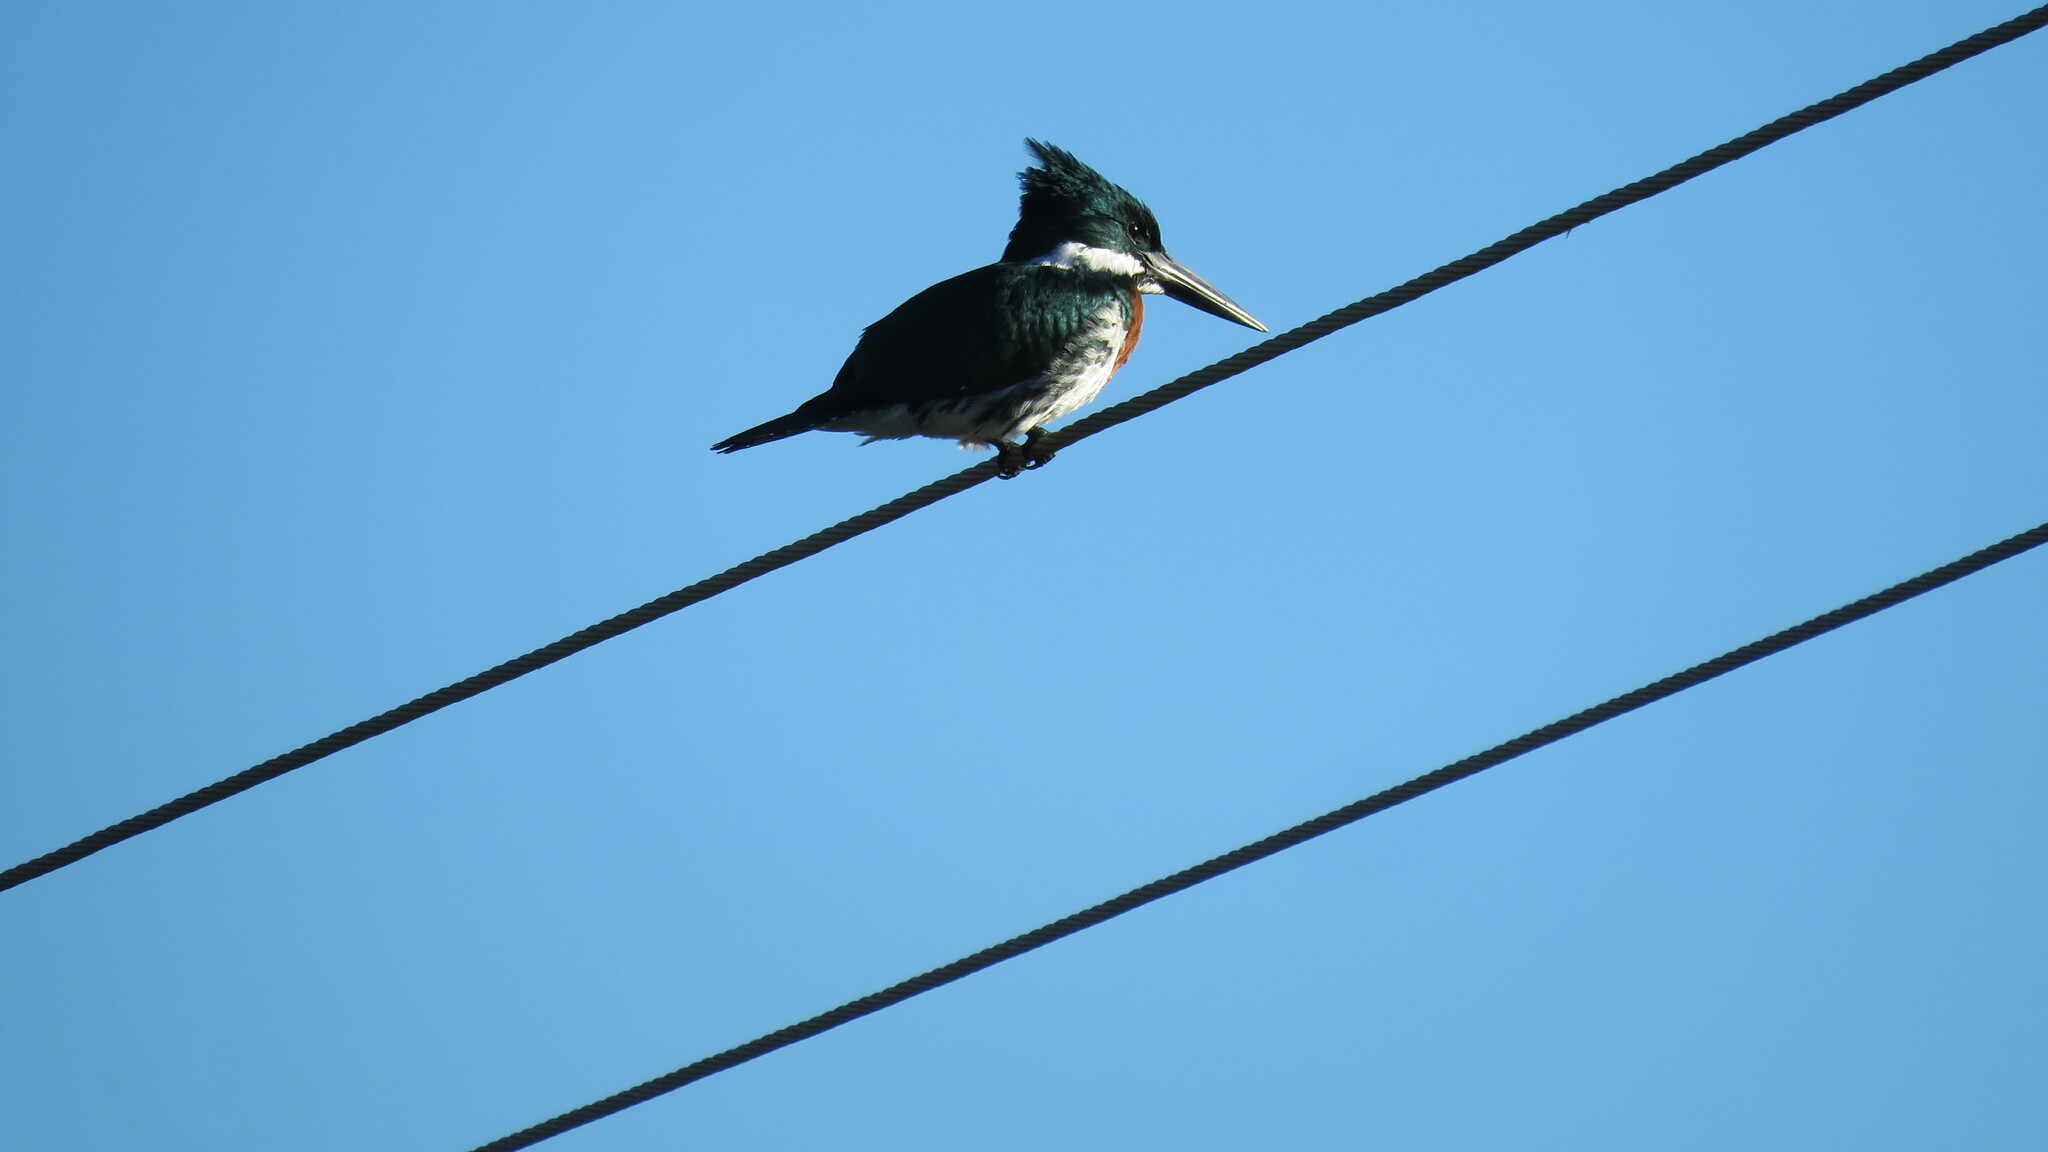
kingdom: Animalia
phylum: Chordata
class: Aves
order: Coraciiformes
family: Alcedinidae
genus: Chloroceryle
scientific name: Chloroceryle amazona
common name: Amazon kingfisher
